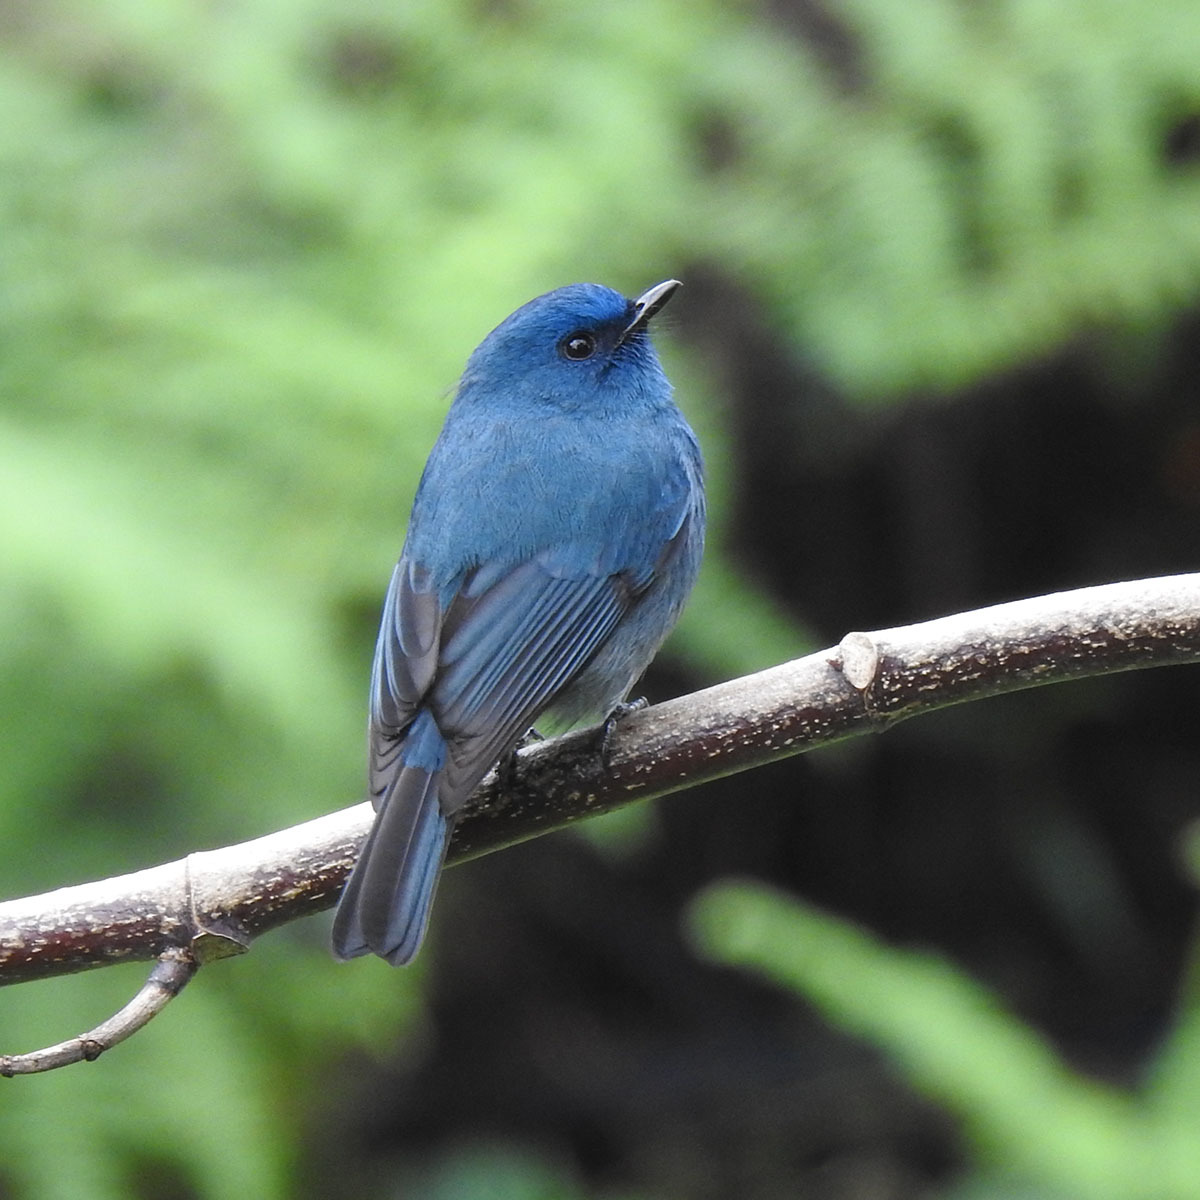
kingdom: Animalia
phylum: Chordata
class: Aves
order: Passeriformes
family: Muscicapidae
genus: Eumyias
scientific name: Eumyias albicaudatus
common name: Nilgiri flycatcher
